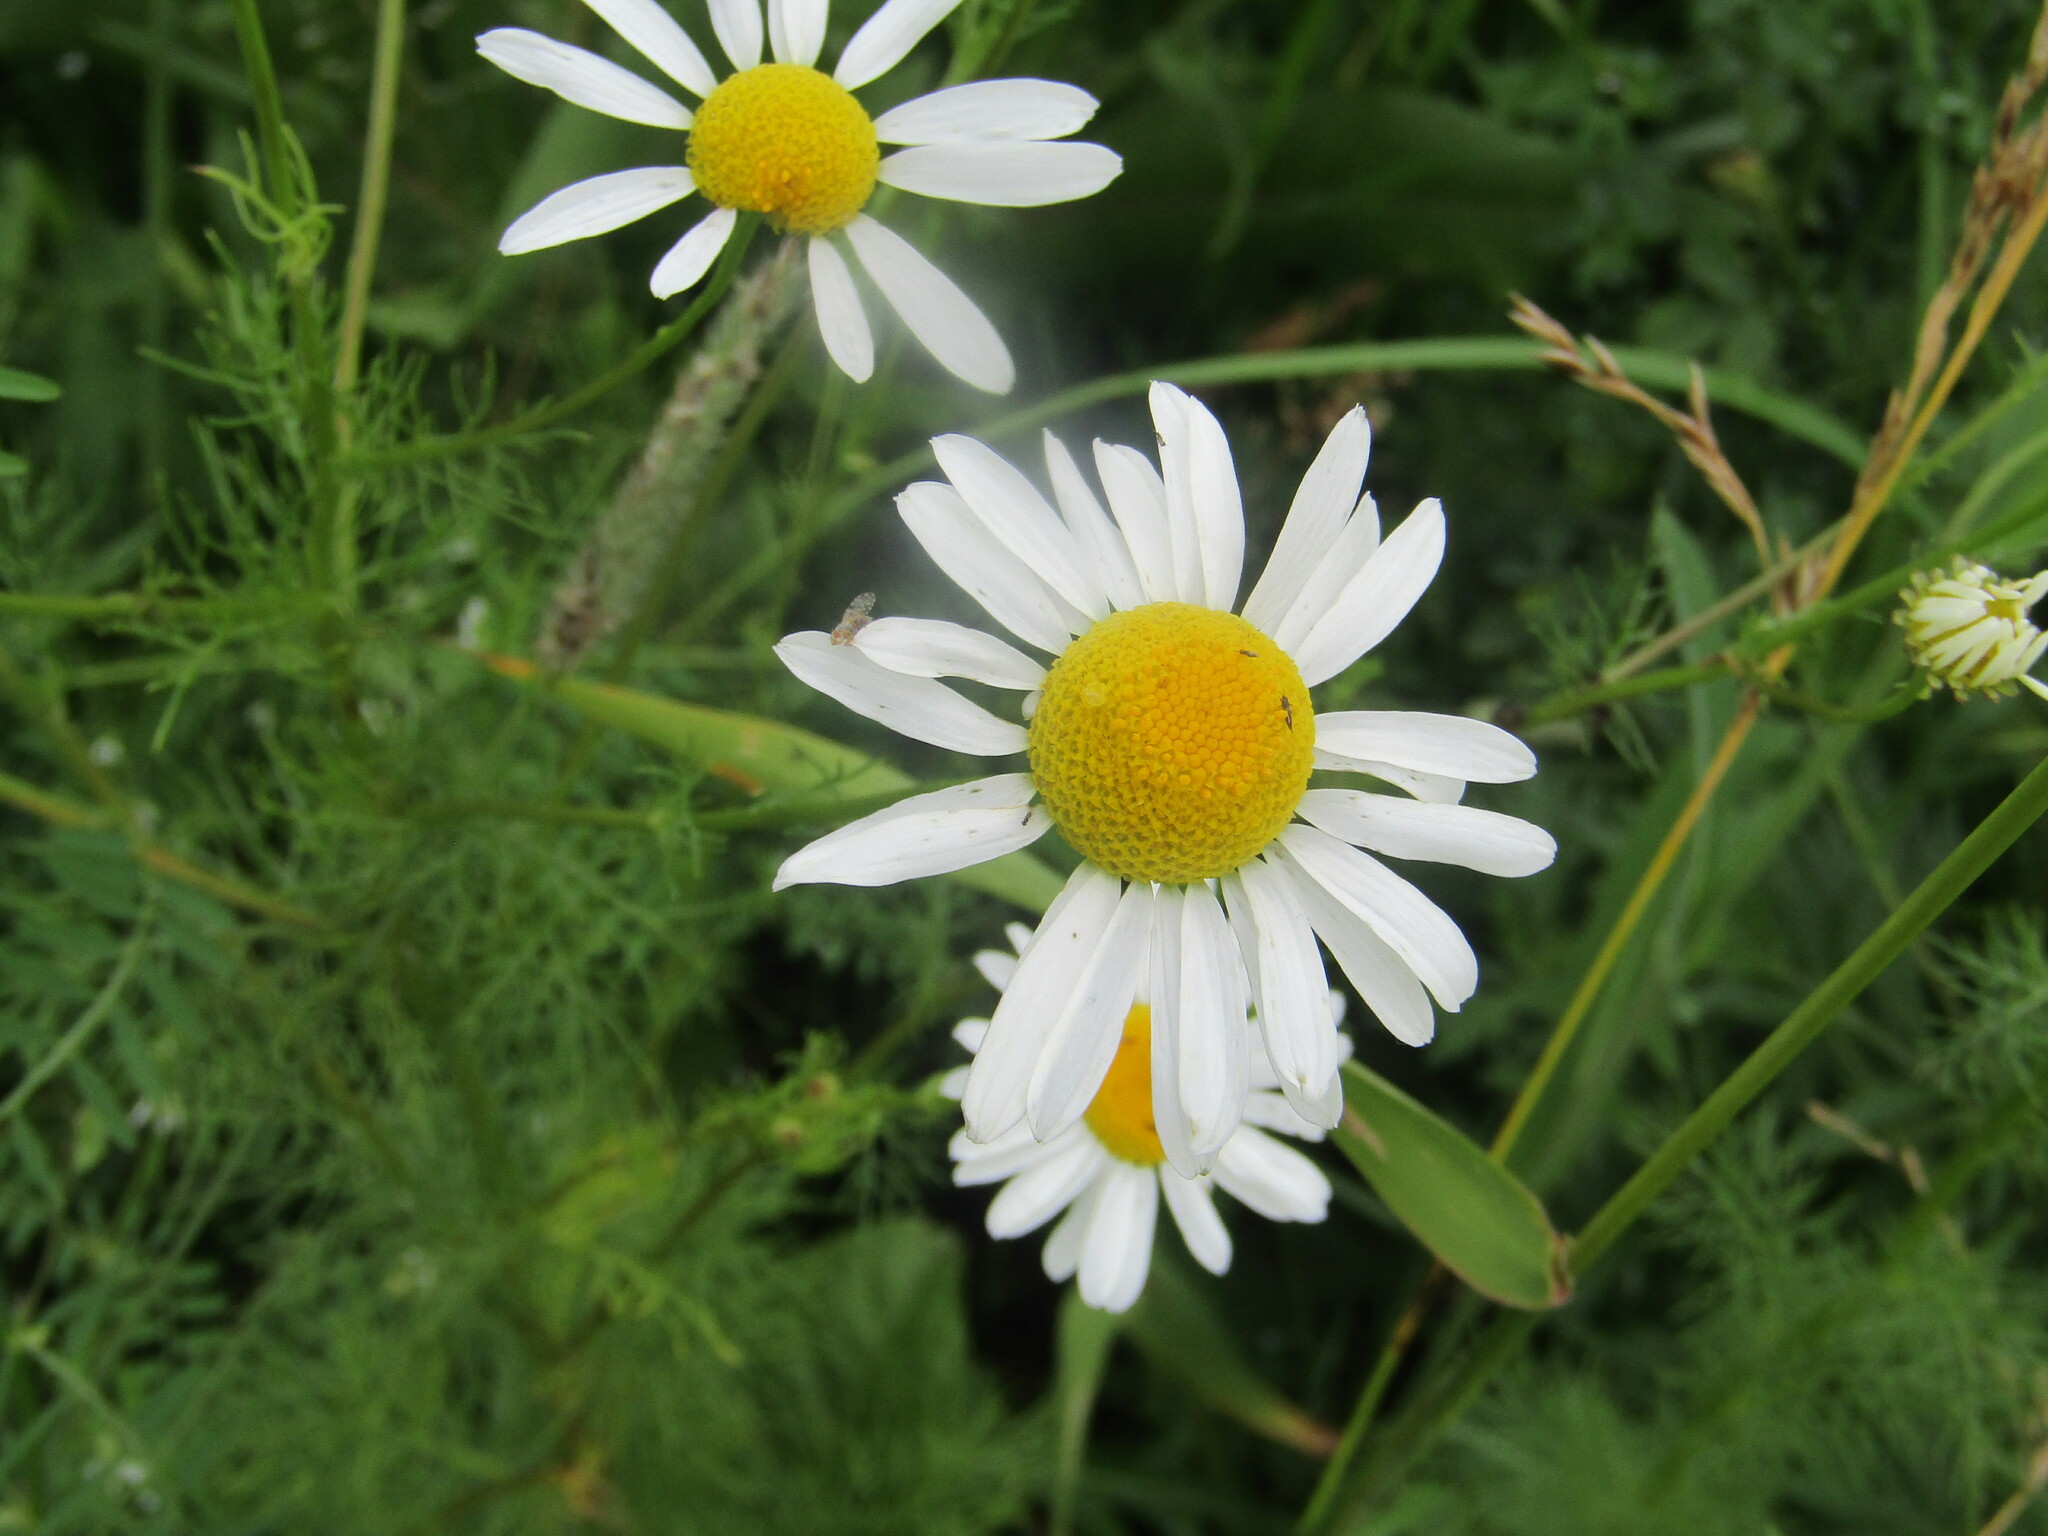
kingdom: Plantae
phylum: Tracheophyta
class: Magnoliopsida
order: Asterales
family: Asteraceae
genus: Tripleurospermum
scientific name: Tripleurospermum inodorum
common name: Scentless mayweed
